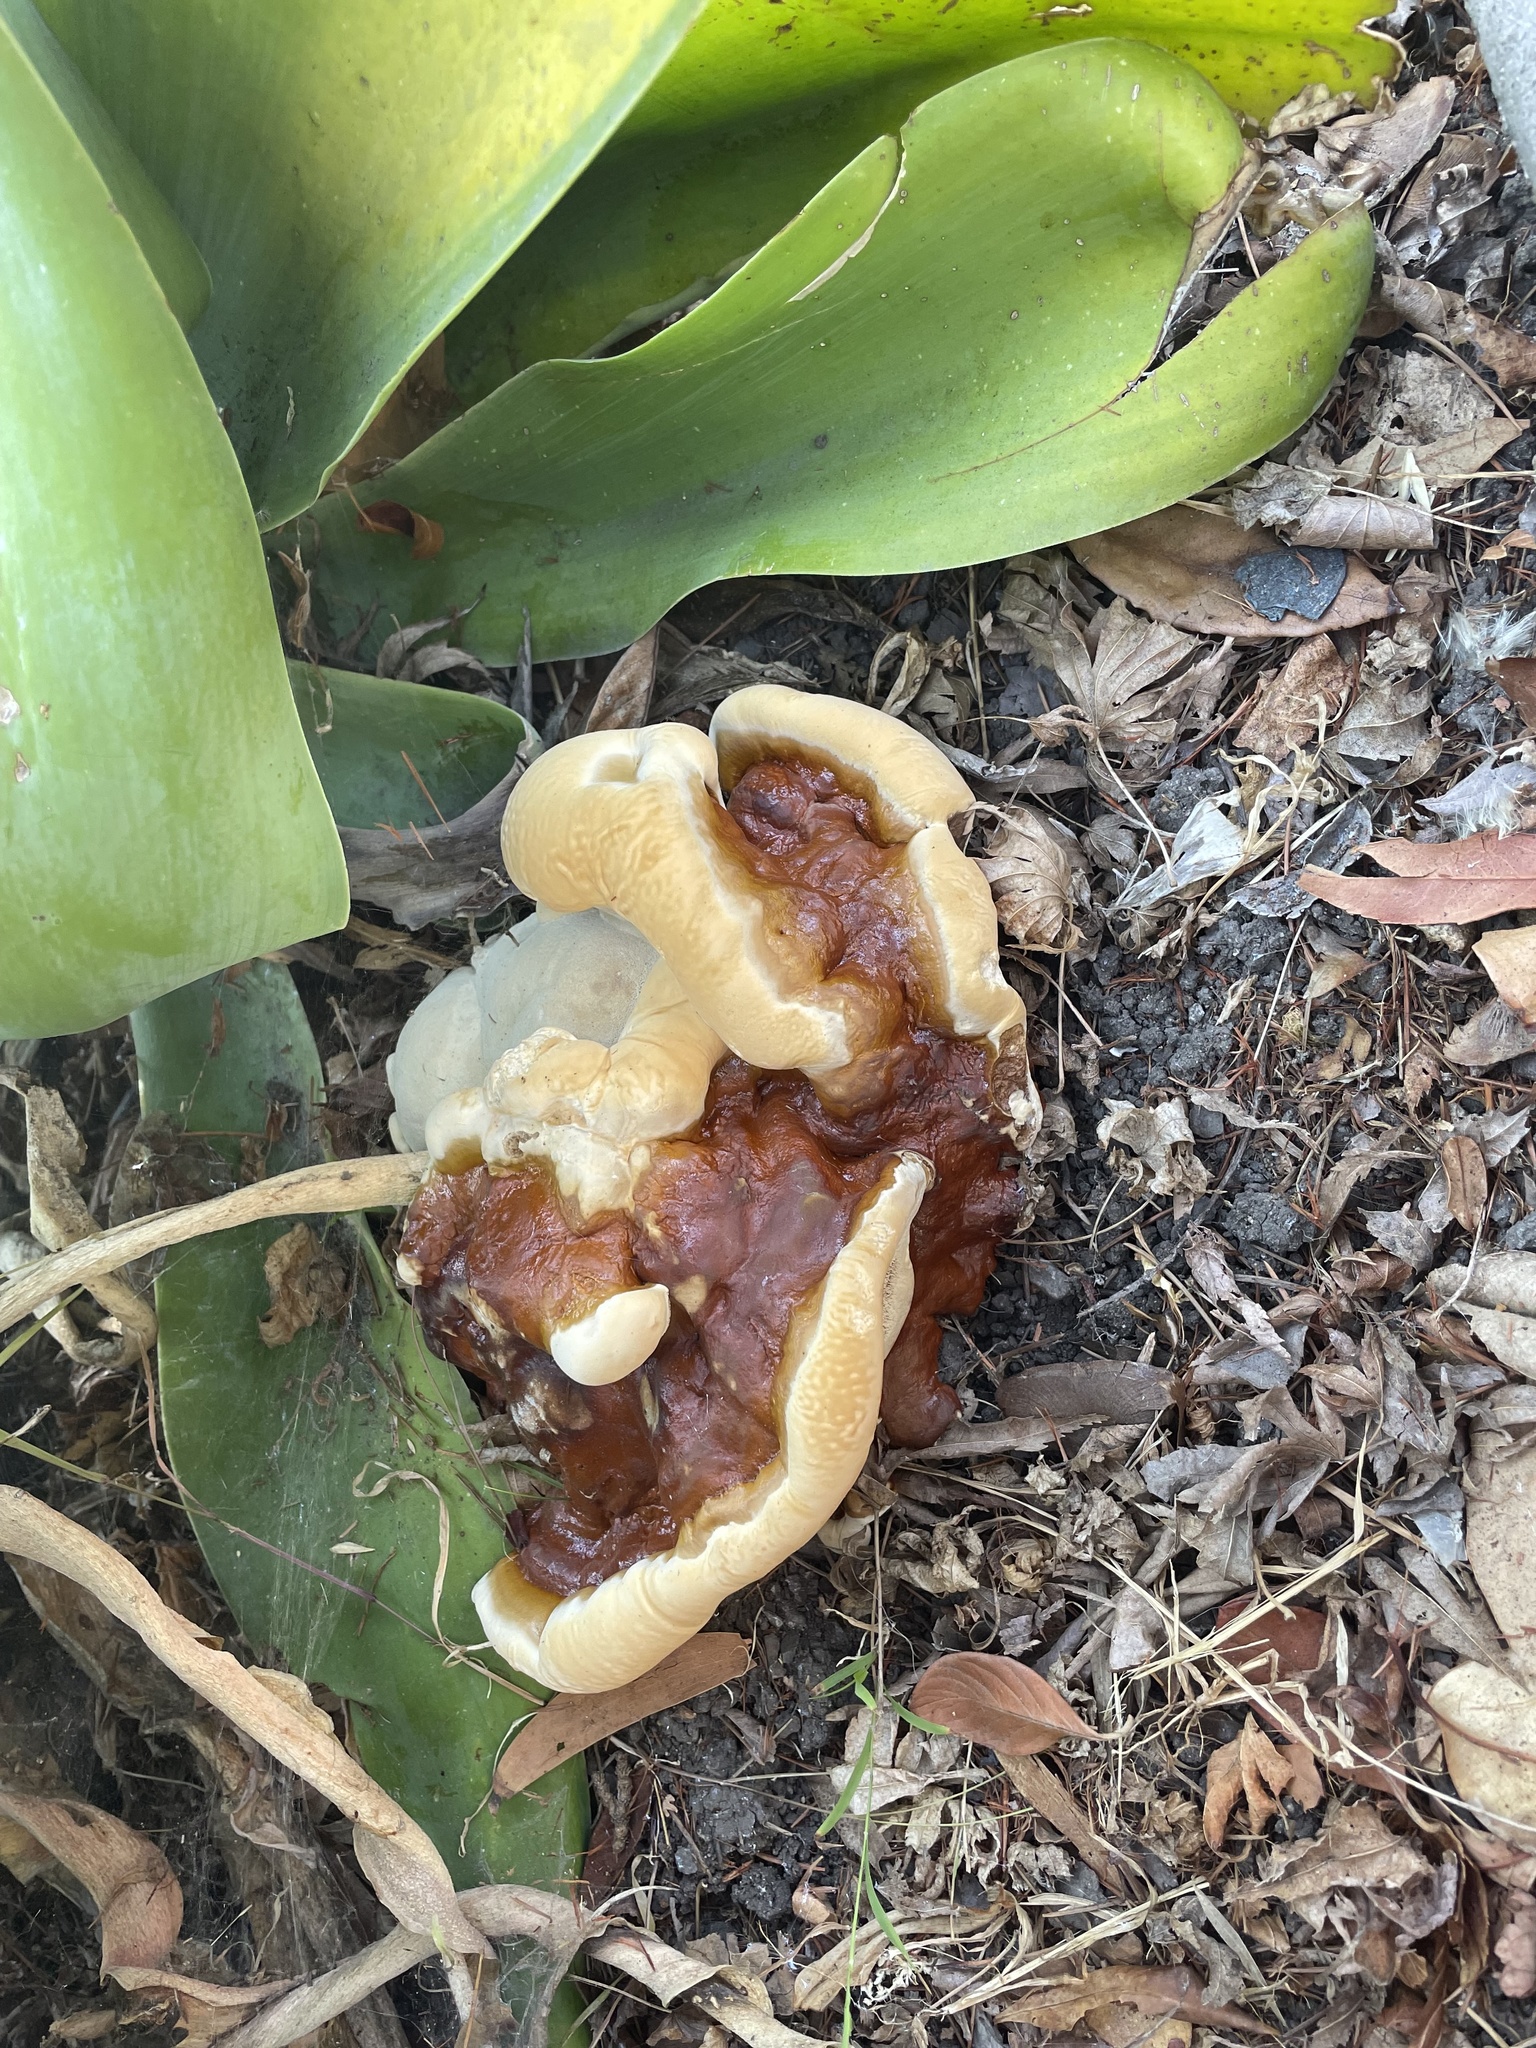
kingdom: Fungi
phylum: Basidiomycota
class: Agaricomycetes
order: Polyporales
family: Polyporaceae
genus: Ganoderma
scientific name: Ganoderma polychromum
